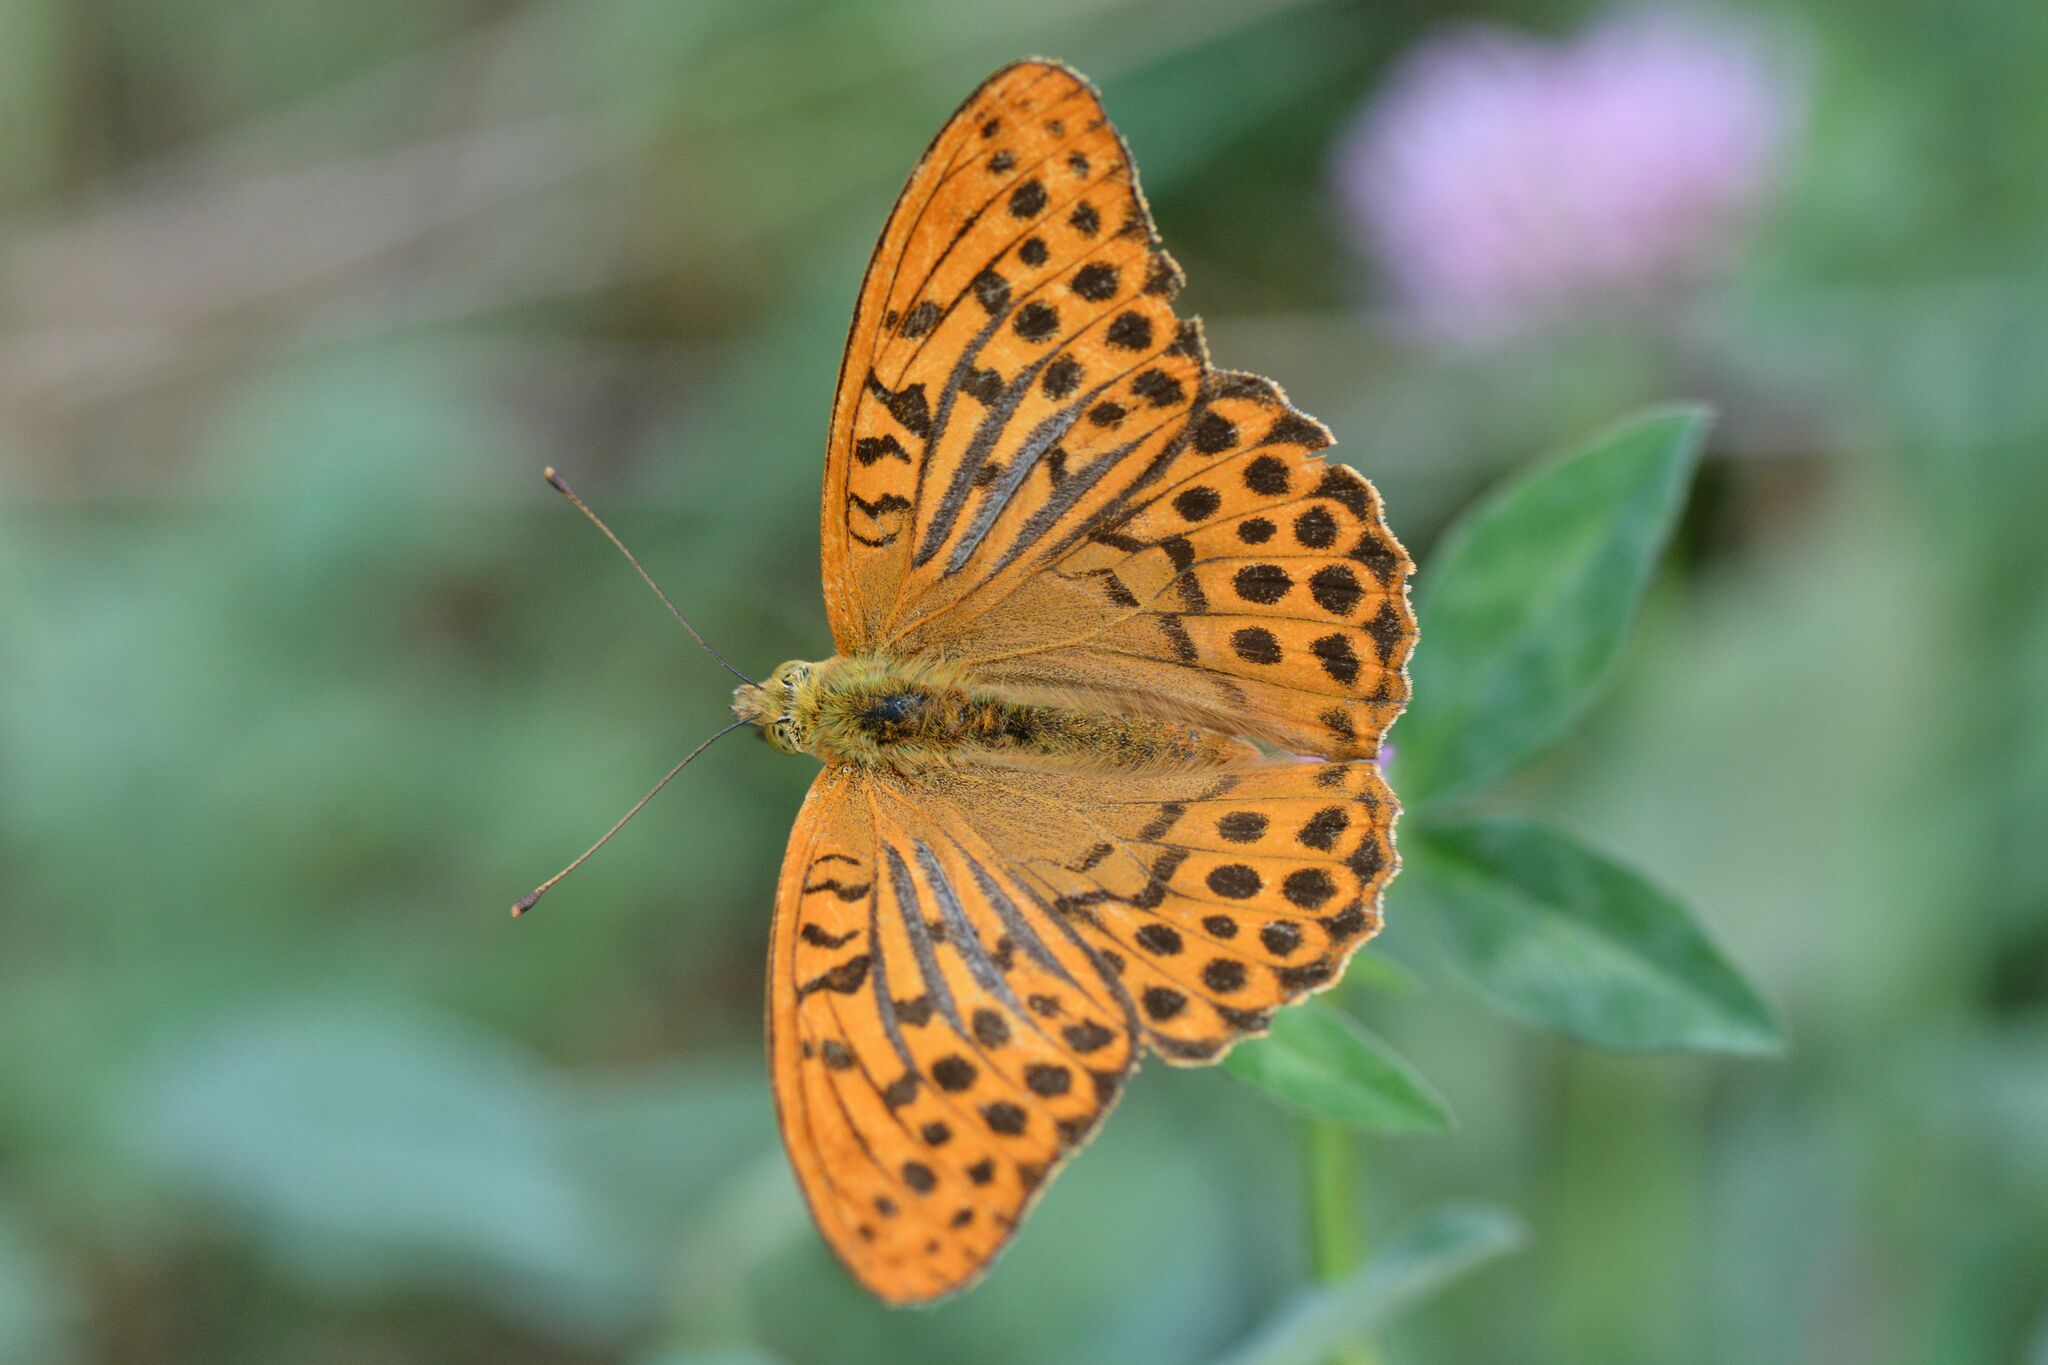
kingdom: Animalia
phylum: Arthropoda
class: Insecta
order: Lepidoptera
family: Nymphalidae
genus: Argynnis
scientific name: Argynnis paphia
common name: Silver-washed fritillary
